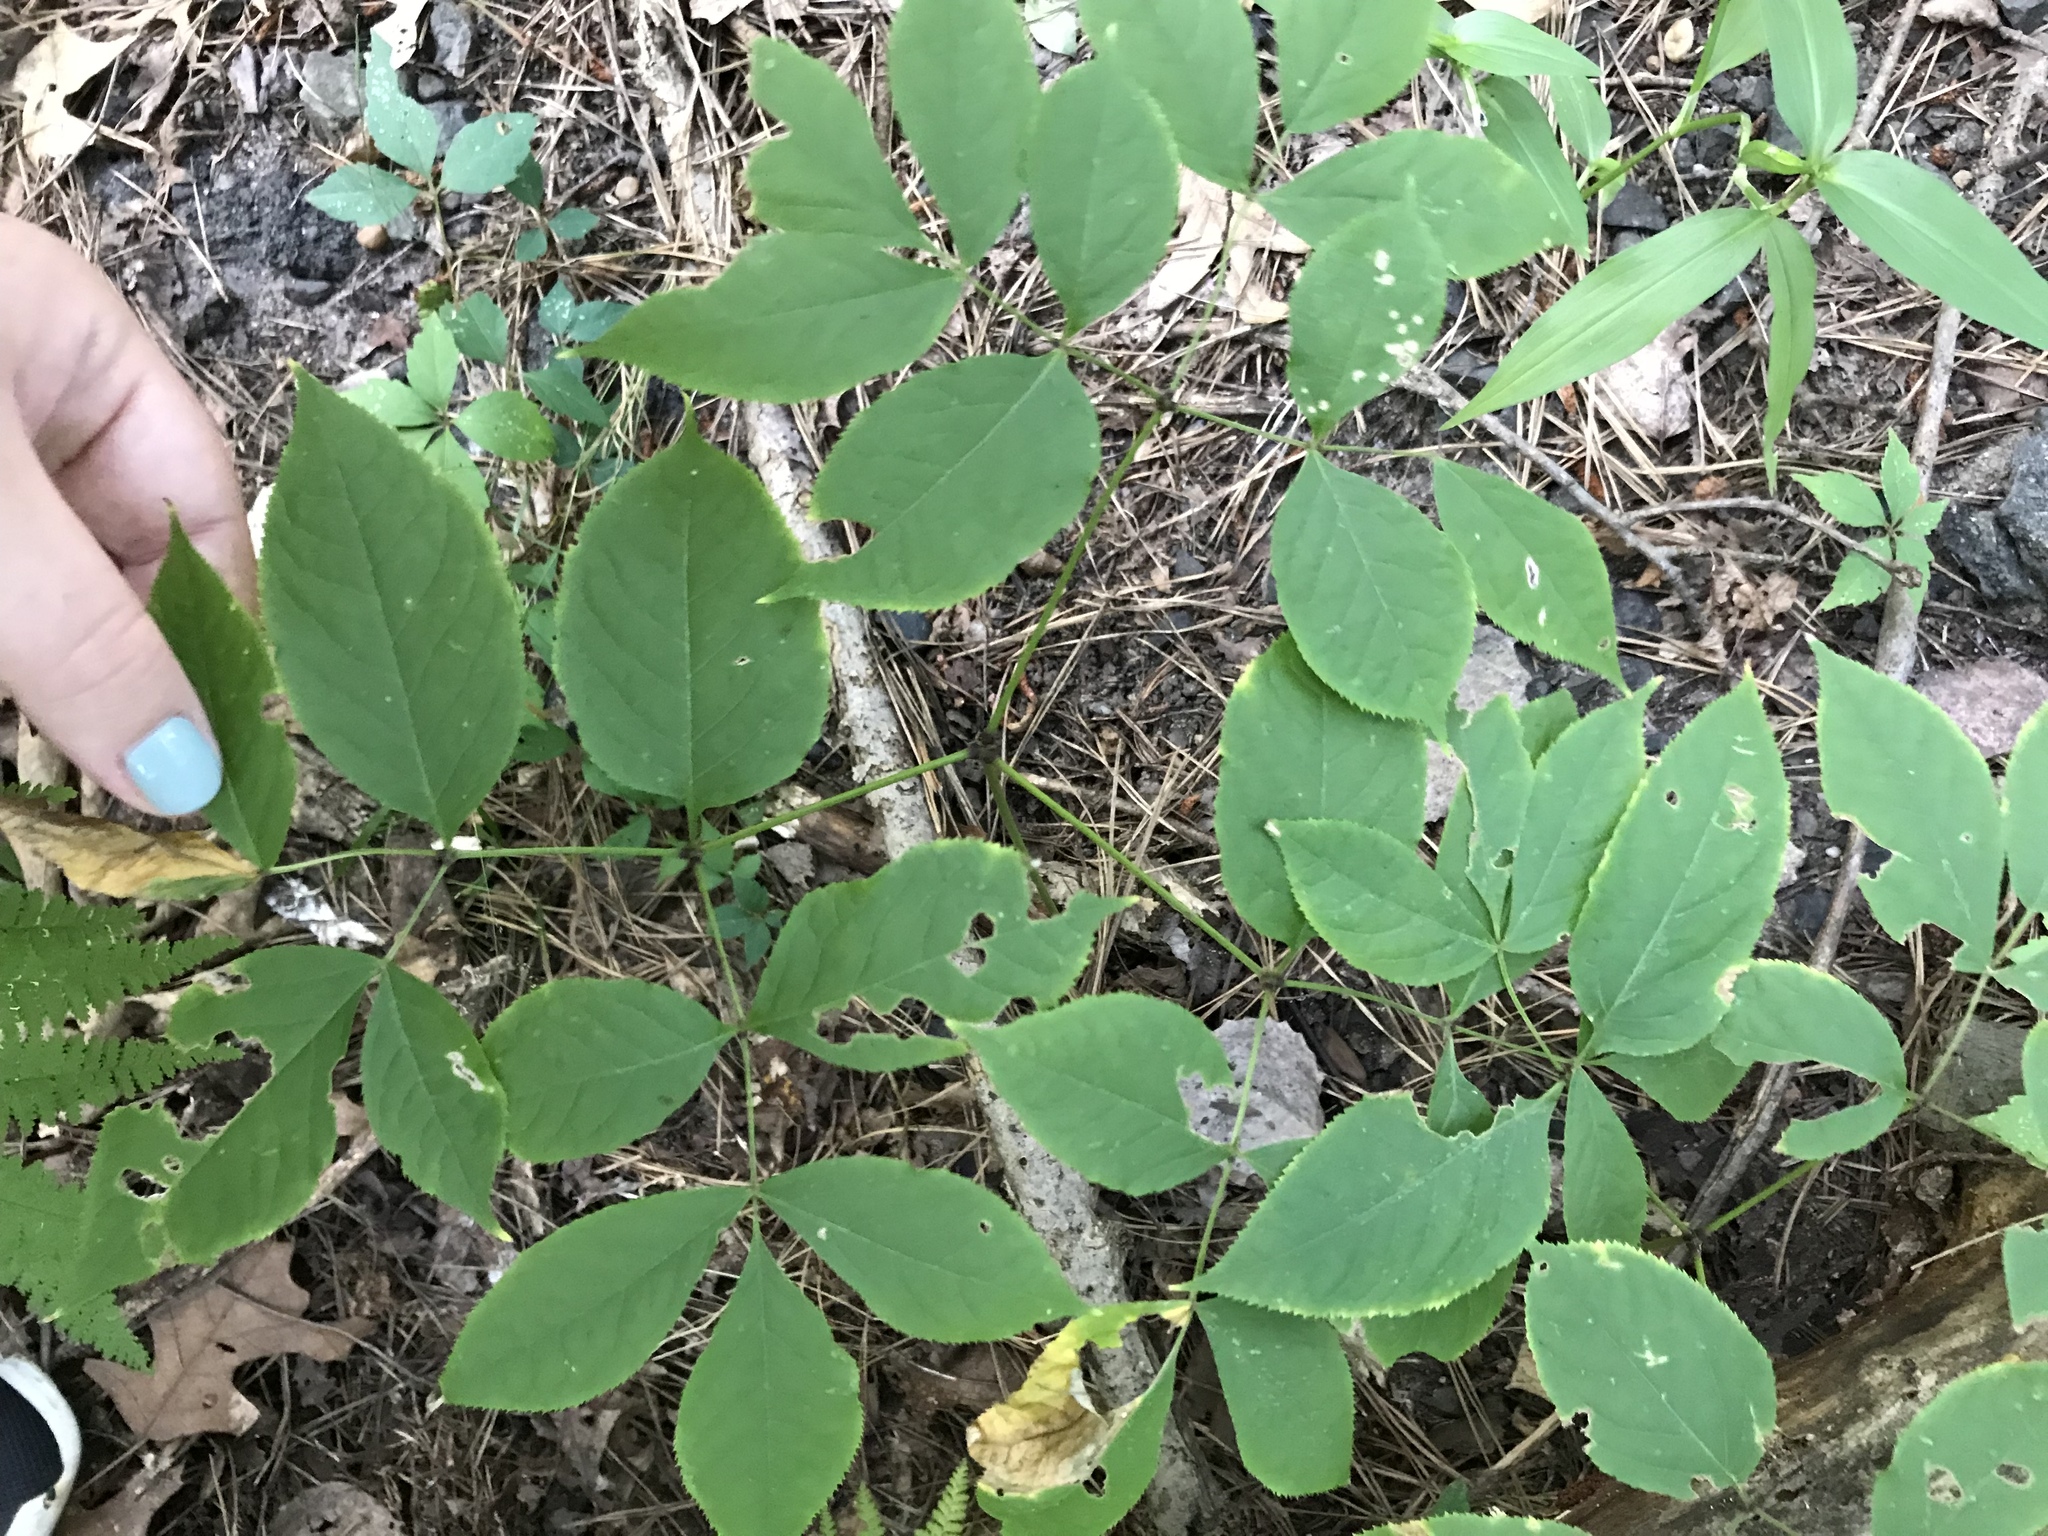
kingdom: Plantae
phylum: Tracheophyta
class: Magnoliopsida
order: Apiales
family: Araliaceae
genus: Aralia
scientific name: Aralia nudicaulis
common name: Wild sarsaparilla
